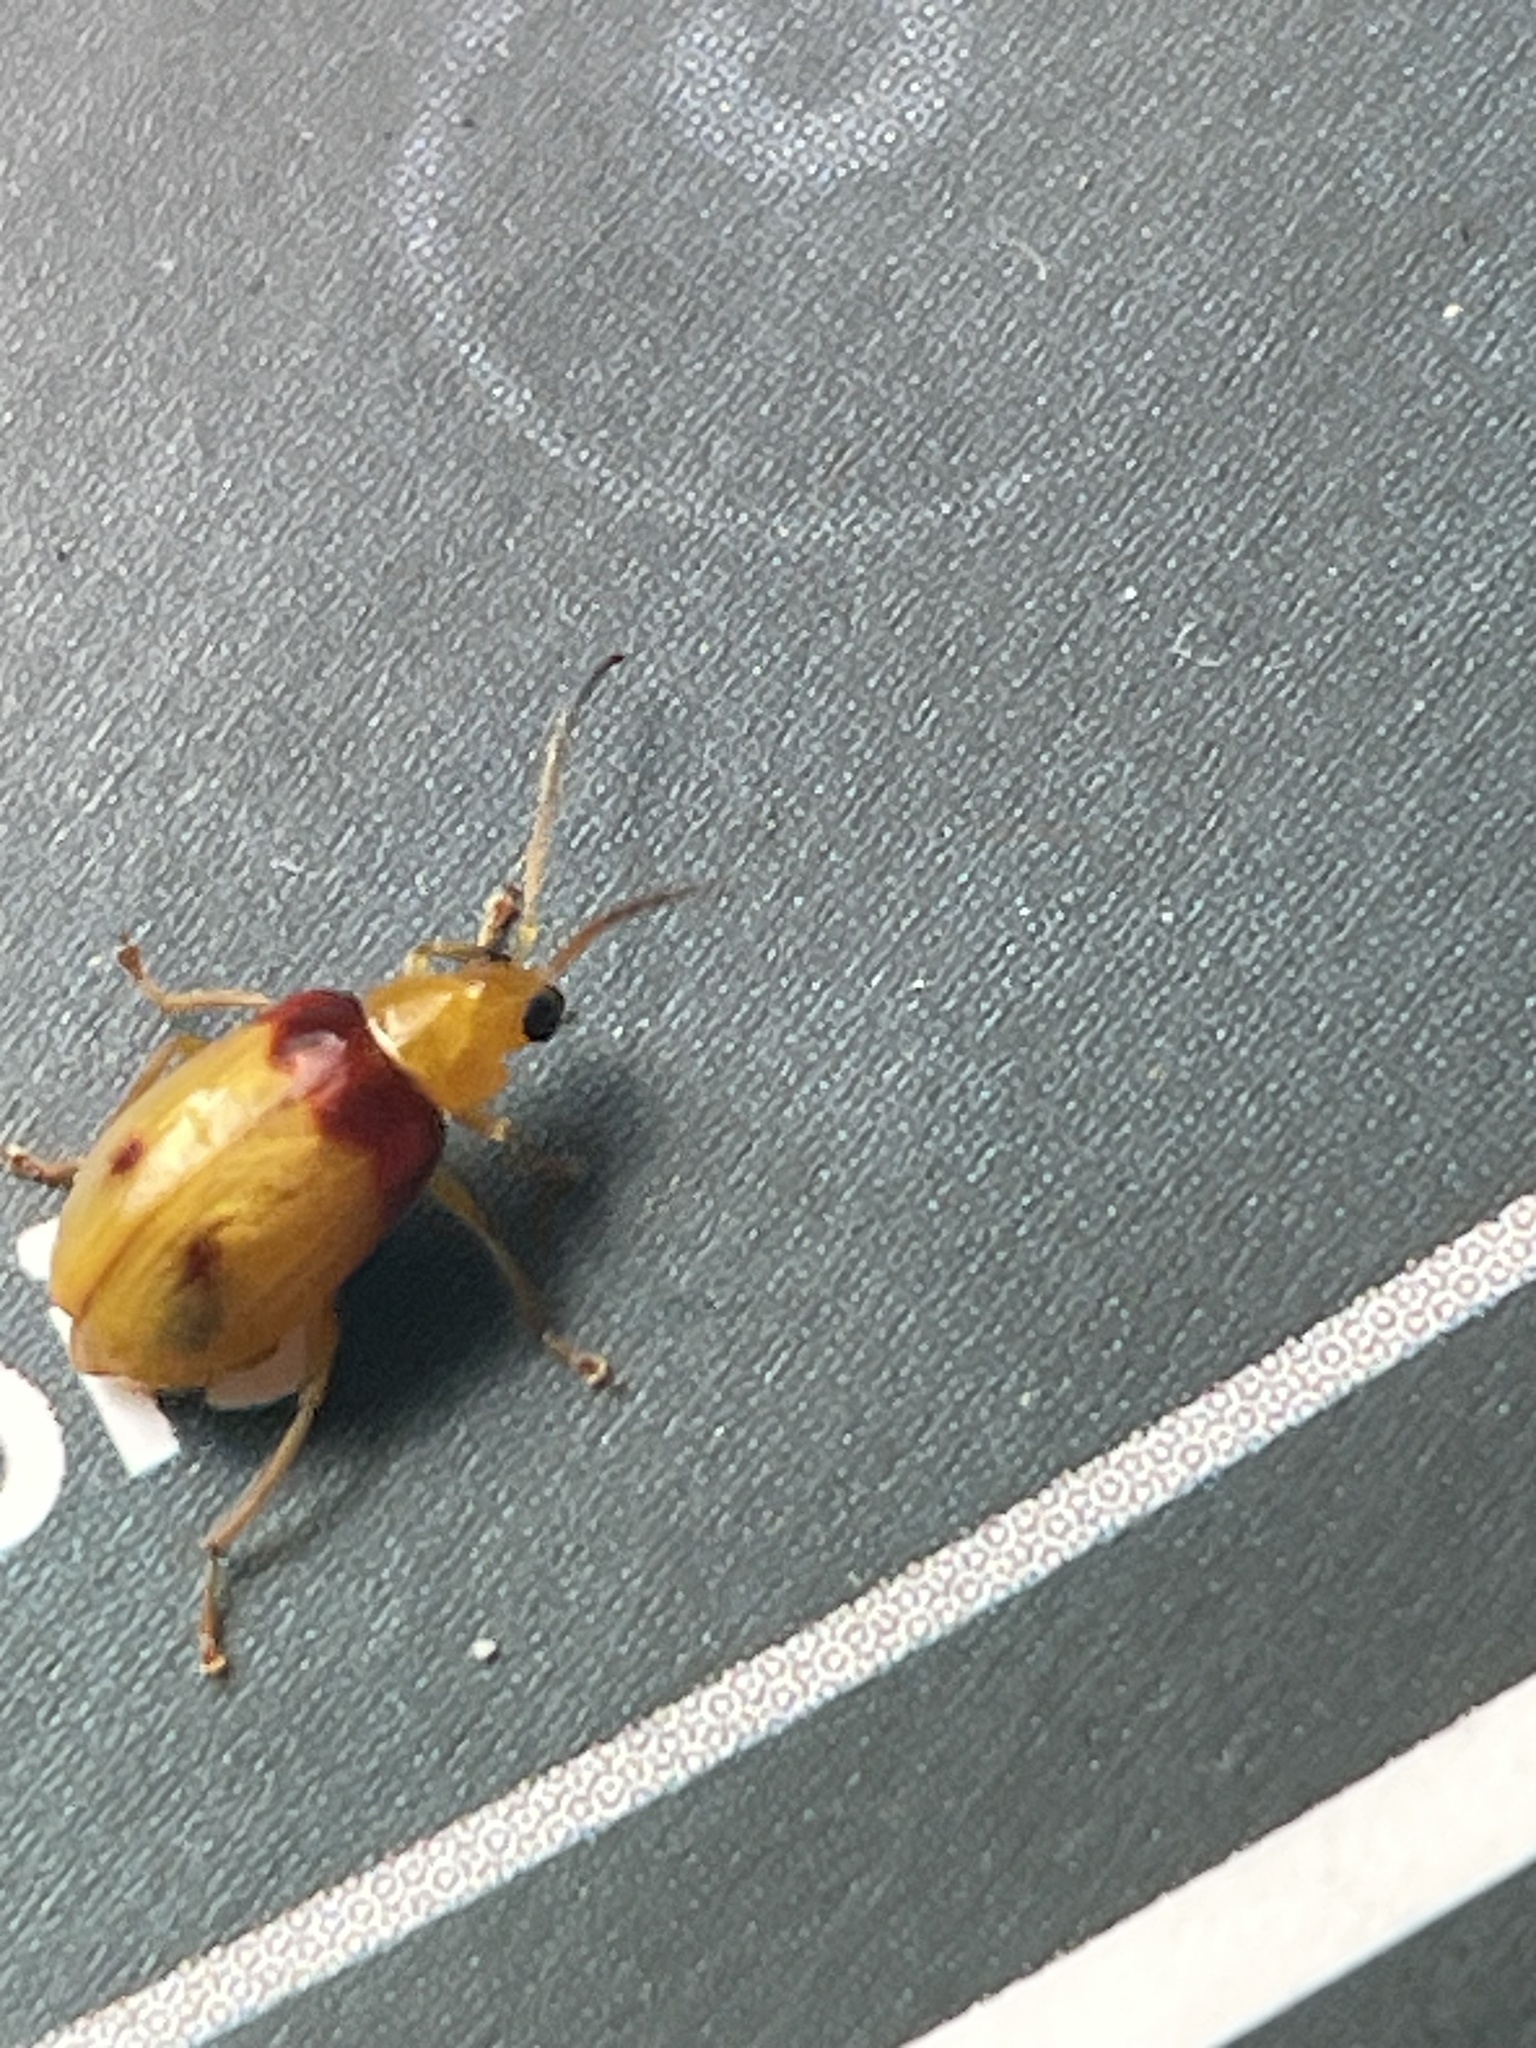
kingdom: Animalia
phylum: Arthropoda
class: Insecta
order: Coleoptera
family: Chrysomelidae
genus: Monolepta
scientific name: Monolepta
